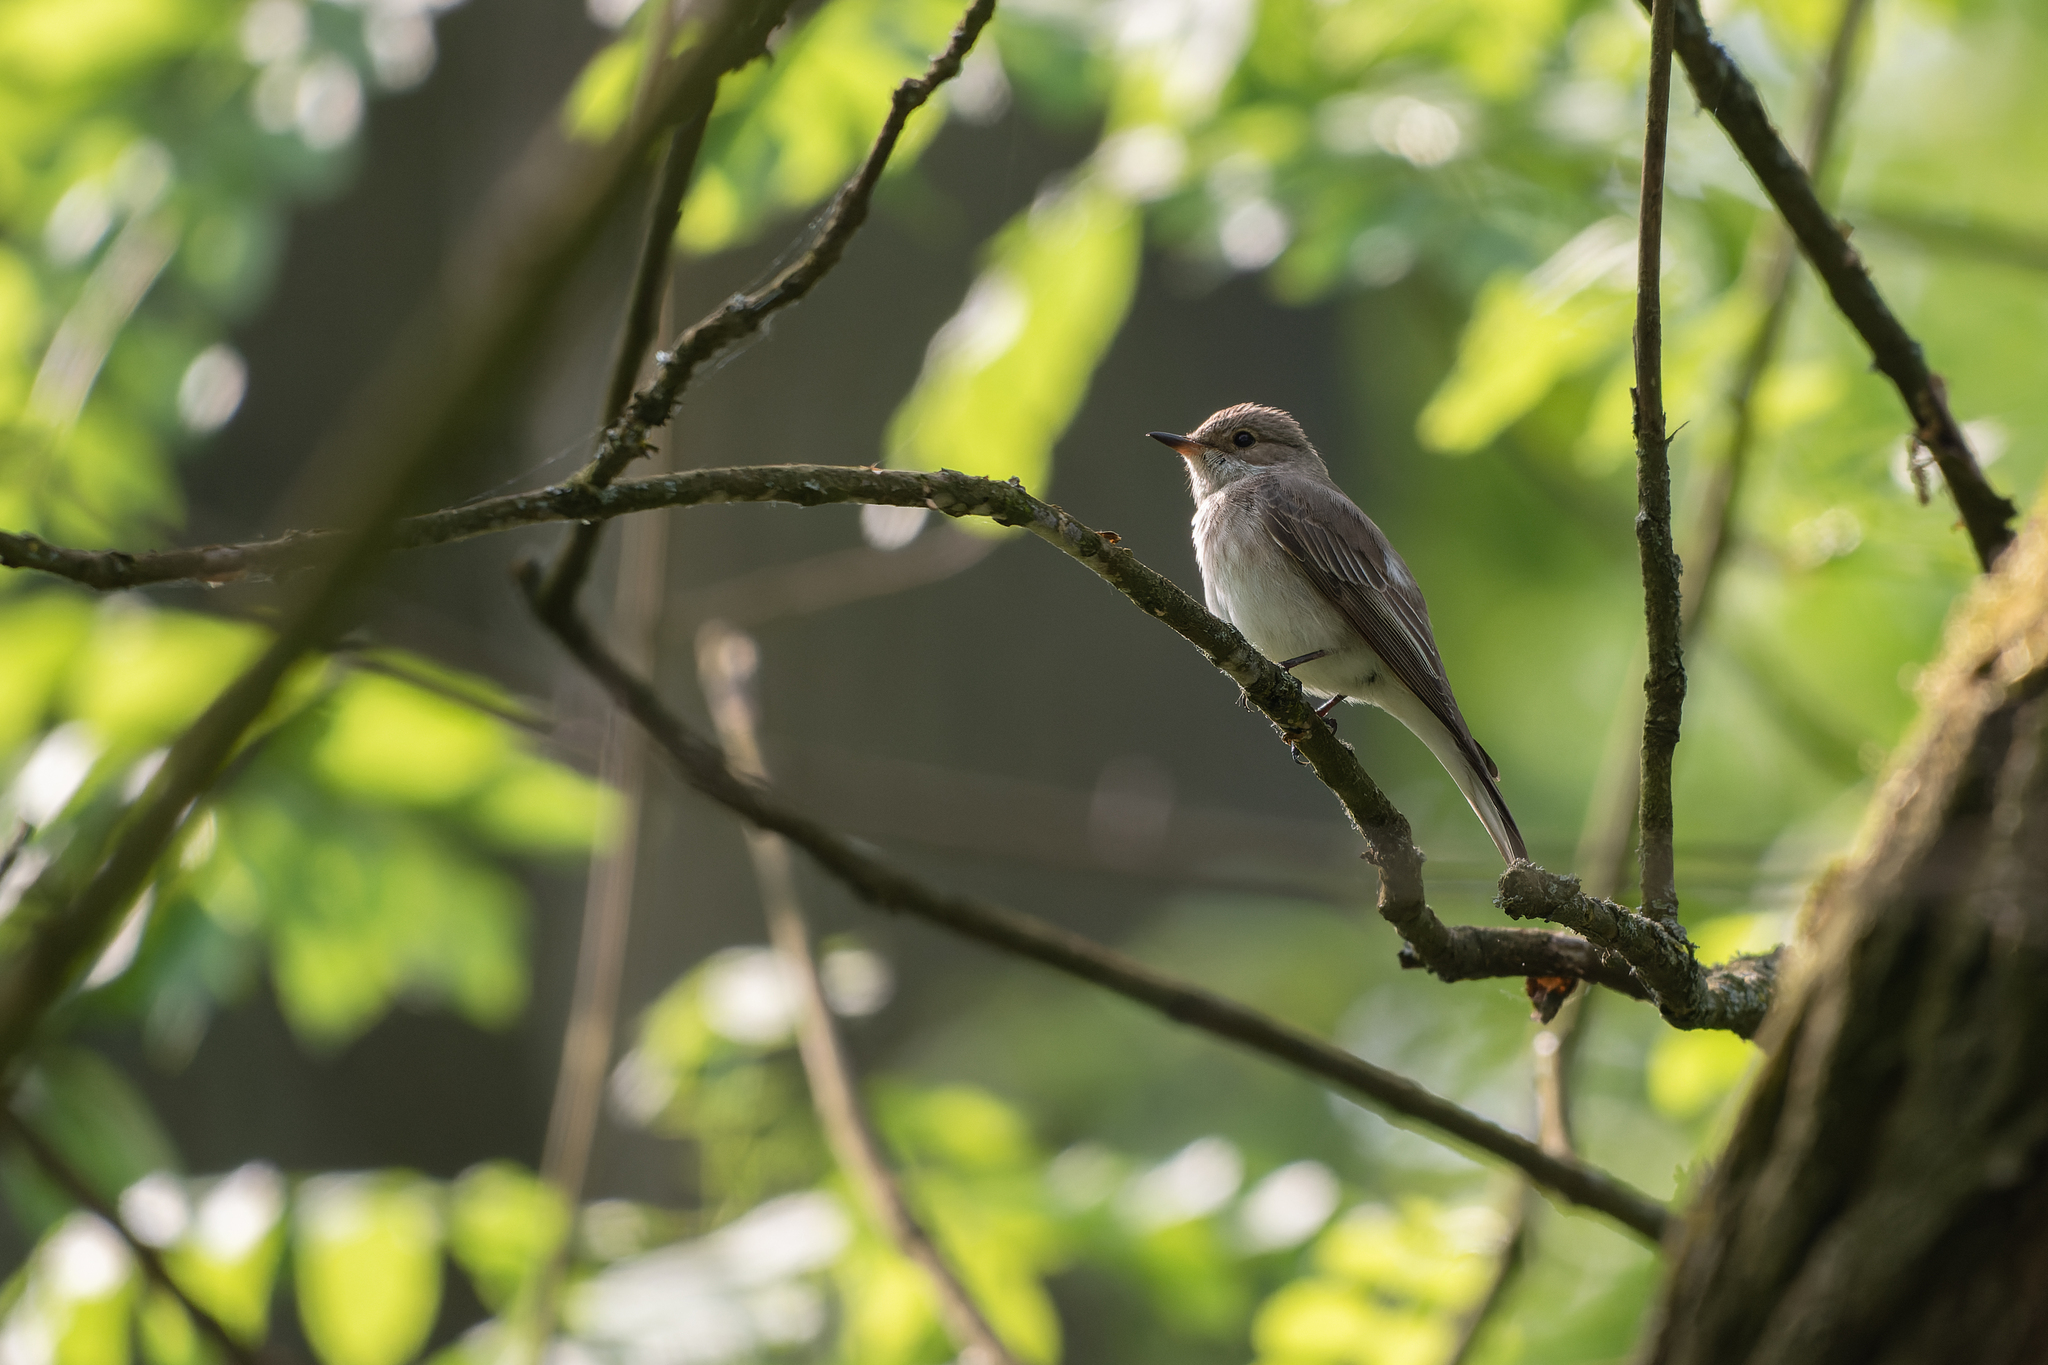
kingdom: Animalia
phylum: Chordata
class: Aves
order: Passeriformes
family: Muscicapidae
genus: Muscicapa
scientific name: Muscicapa striata
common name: Spotted flycatcher
